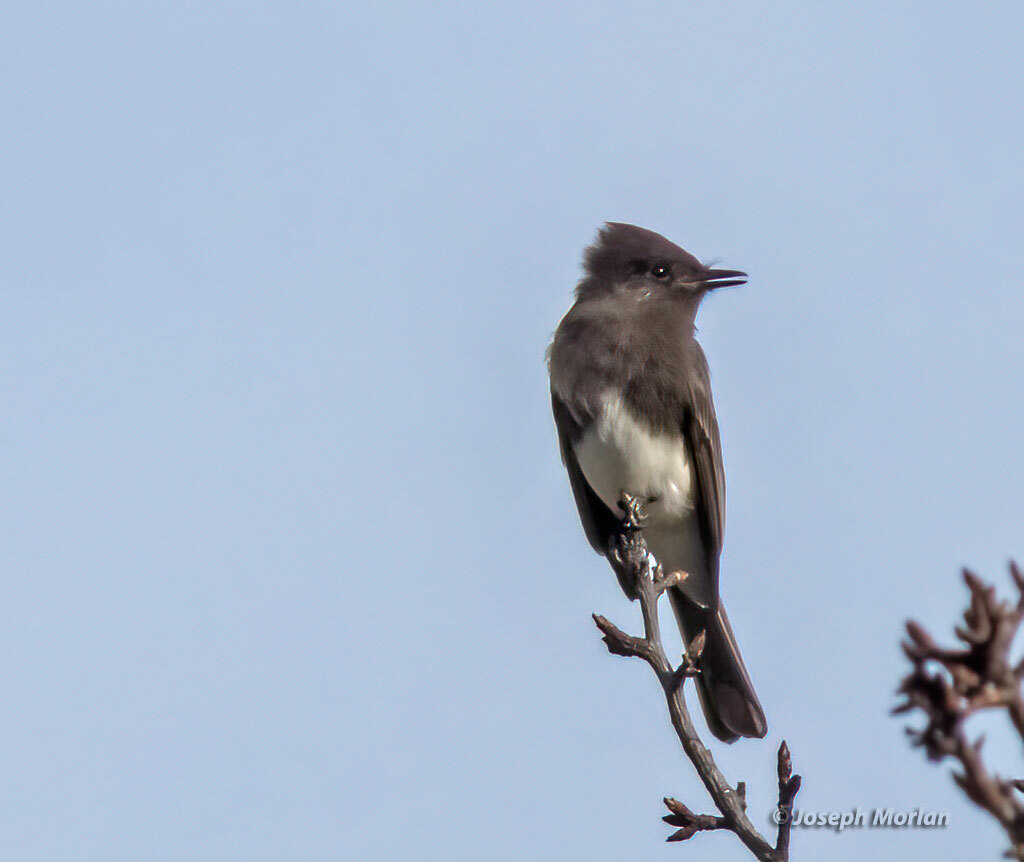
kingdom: Animalia
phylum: Chordata
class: Aves
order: Passeriformes
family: Tyrannidae
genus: Sayornis
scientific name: Sayornis nigricans
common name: Black phoebe
